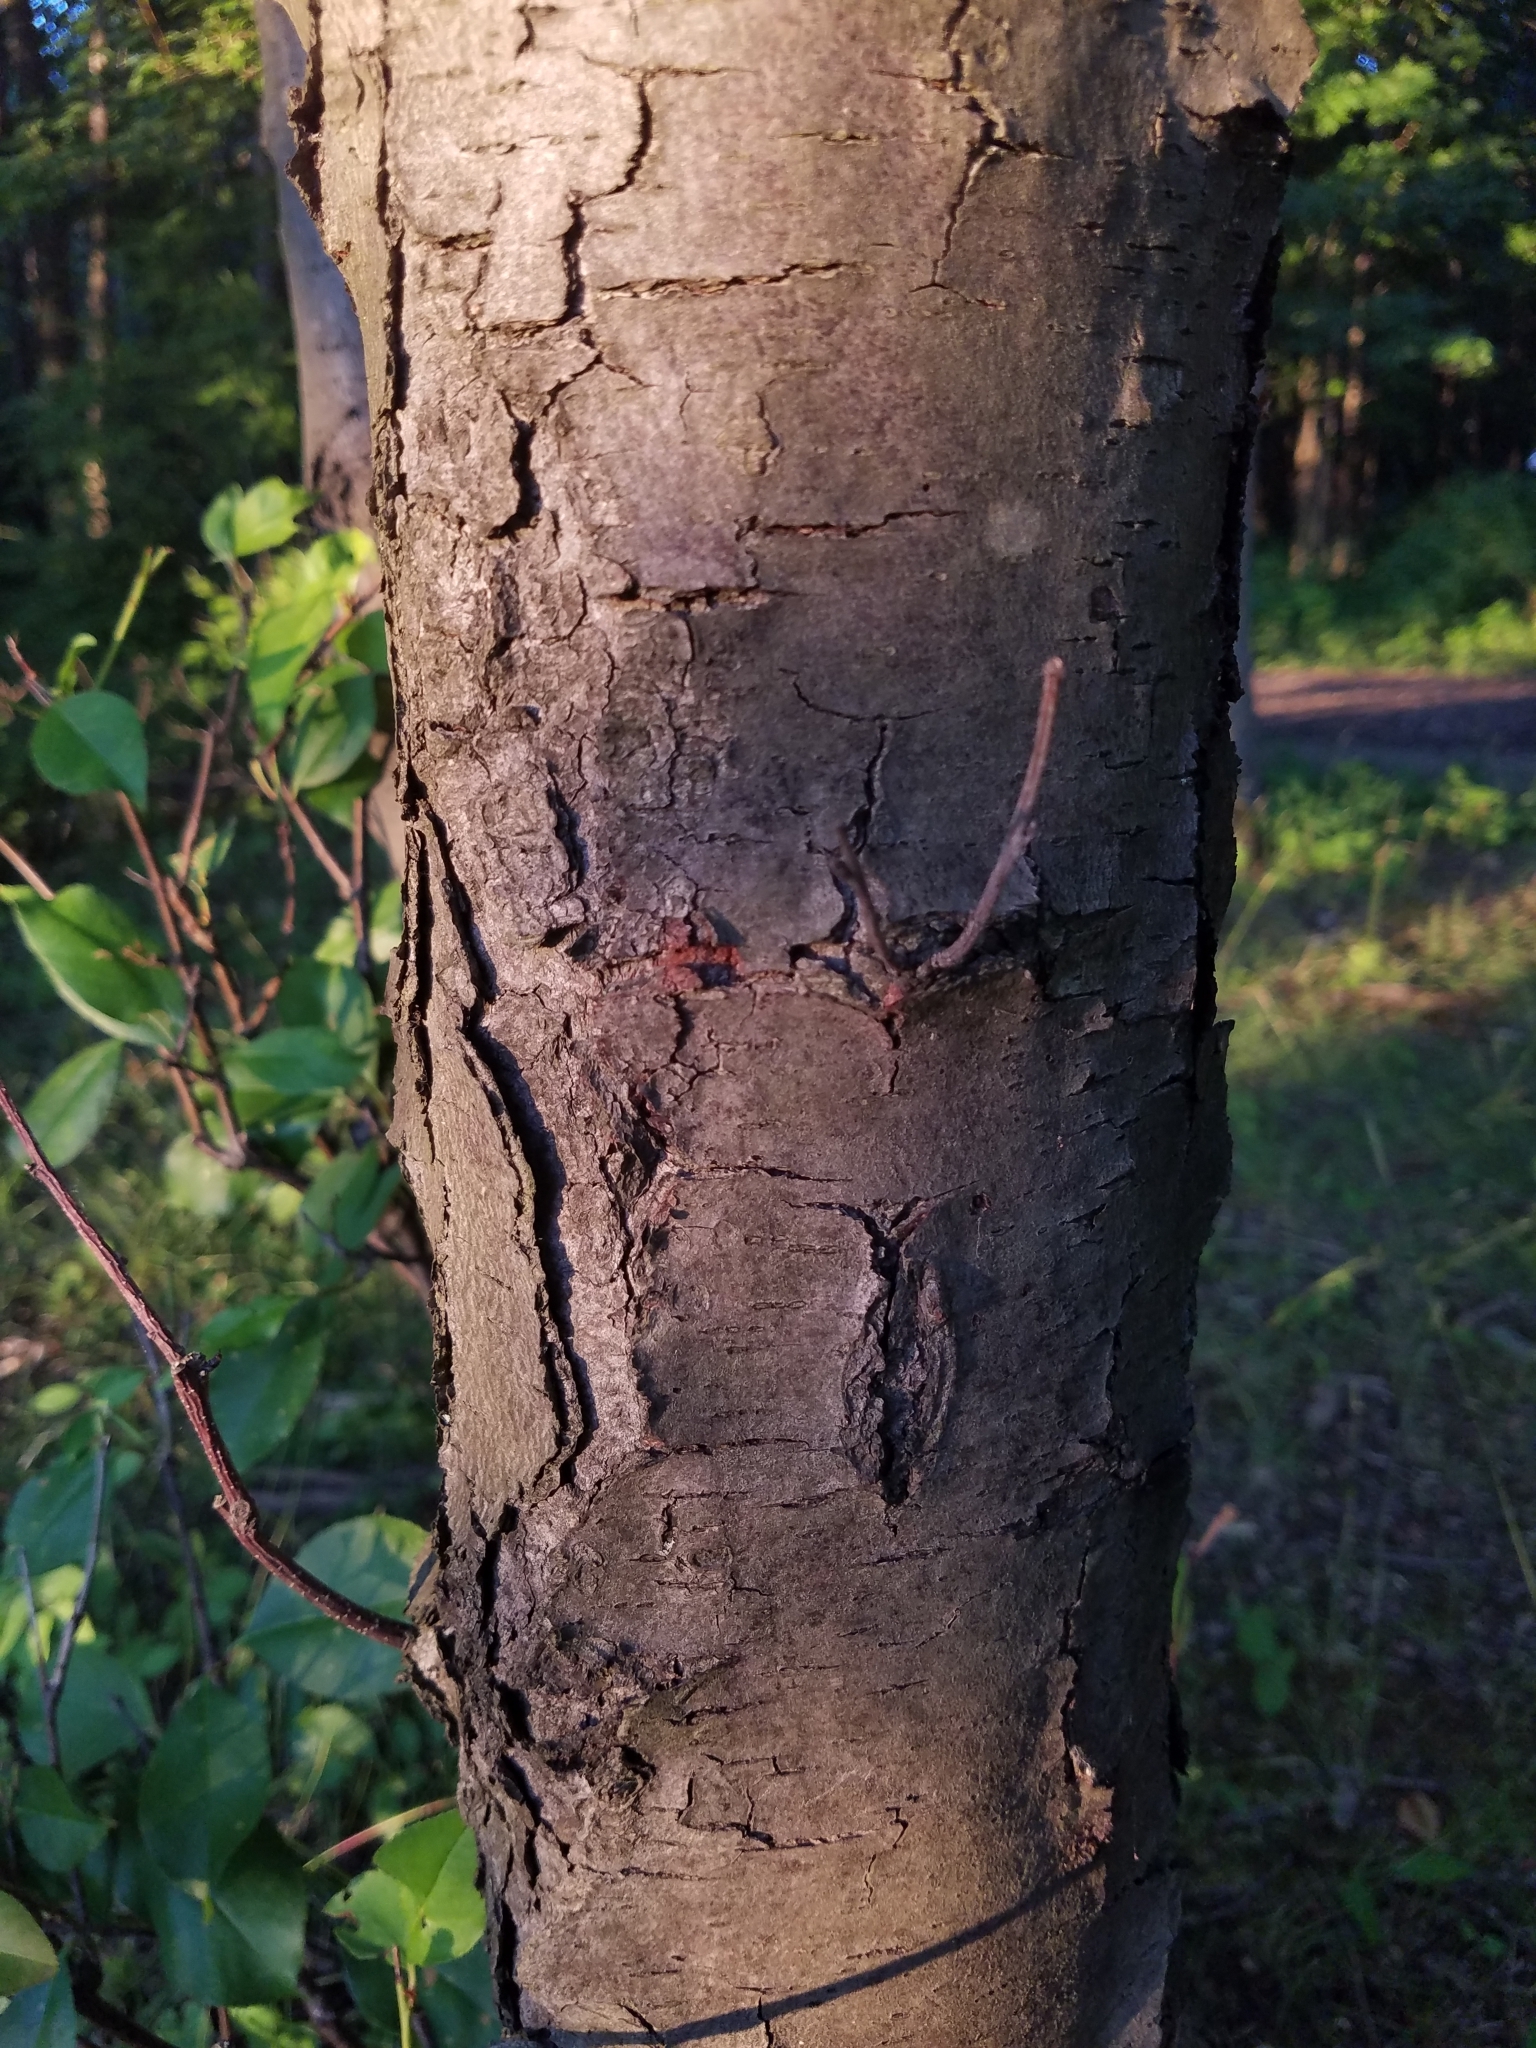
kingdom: Plantae
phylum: Tracheophyta
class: Magnoliopsida
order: Rosales
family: Rosaceae
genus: Prunus
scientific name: Prunus serotina
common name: Black cherry
